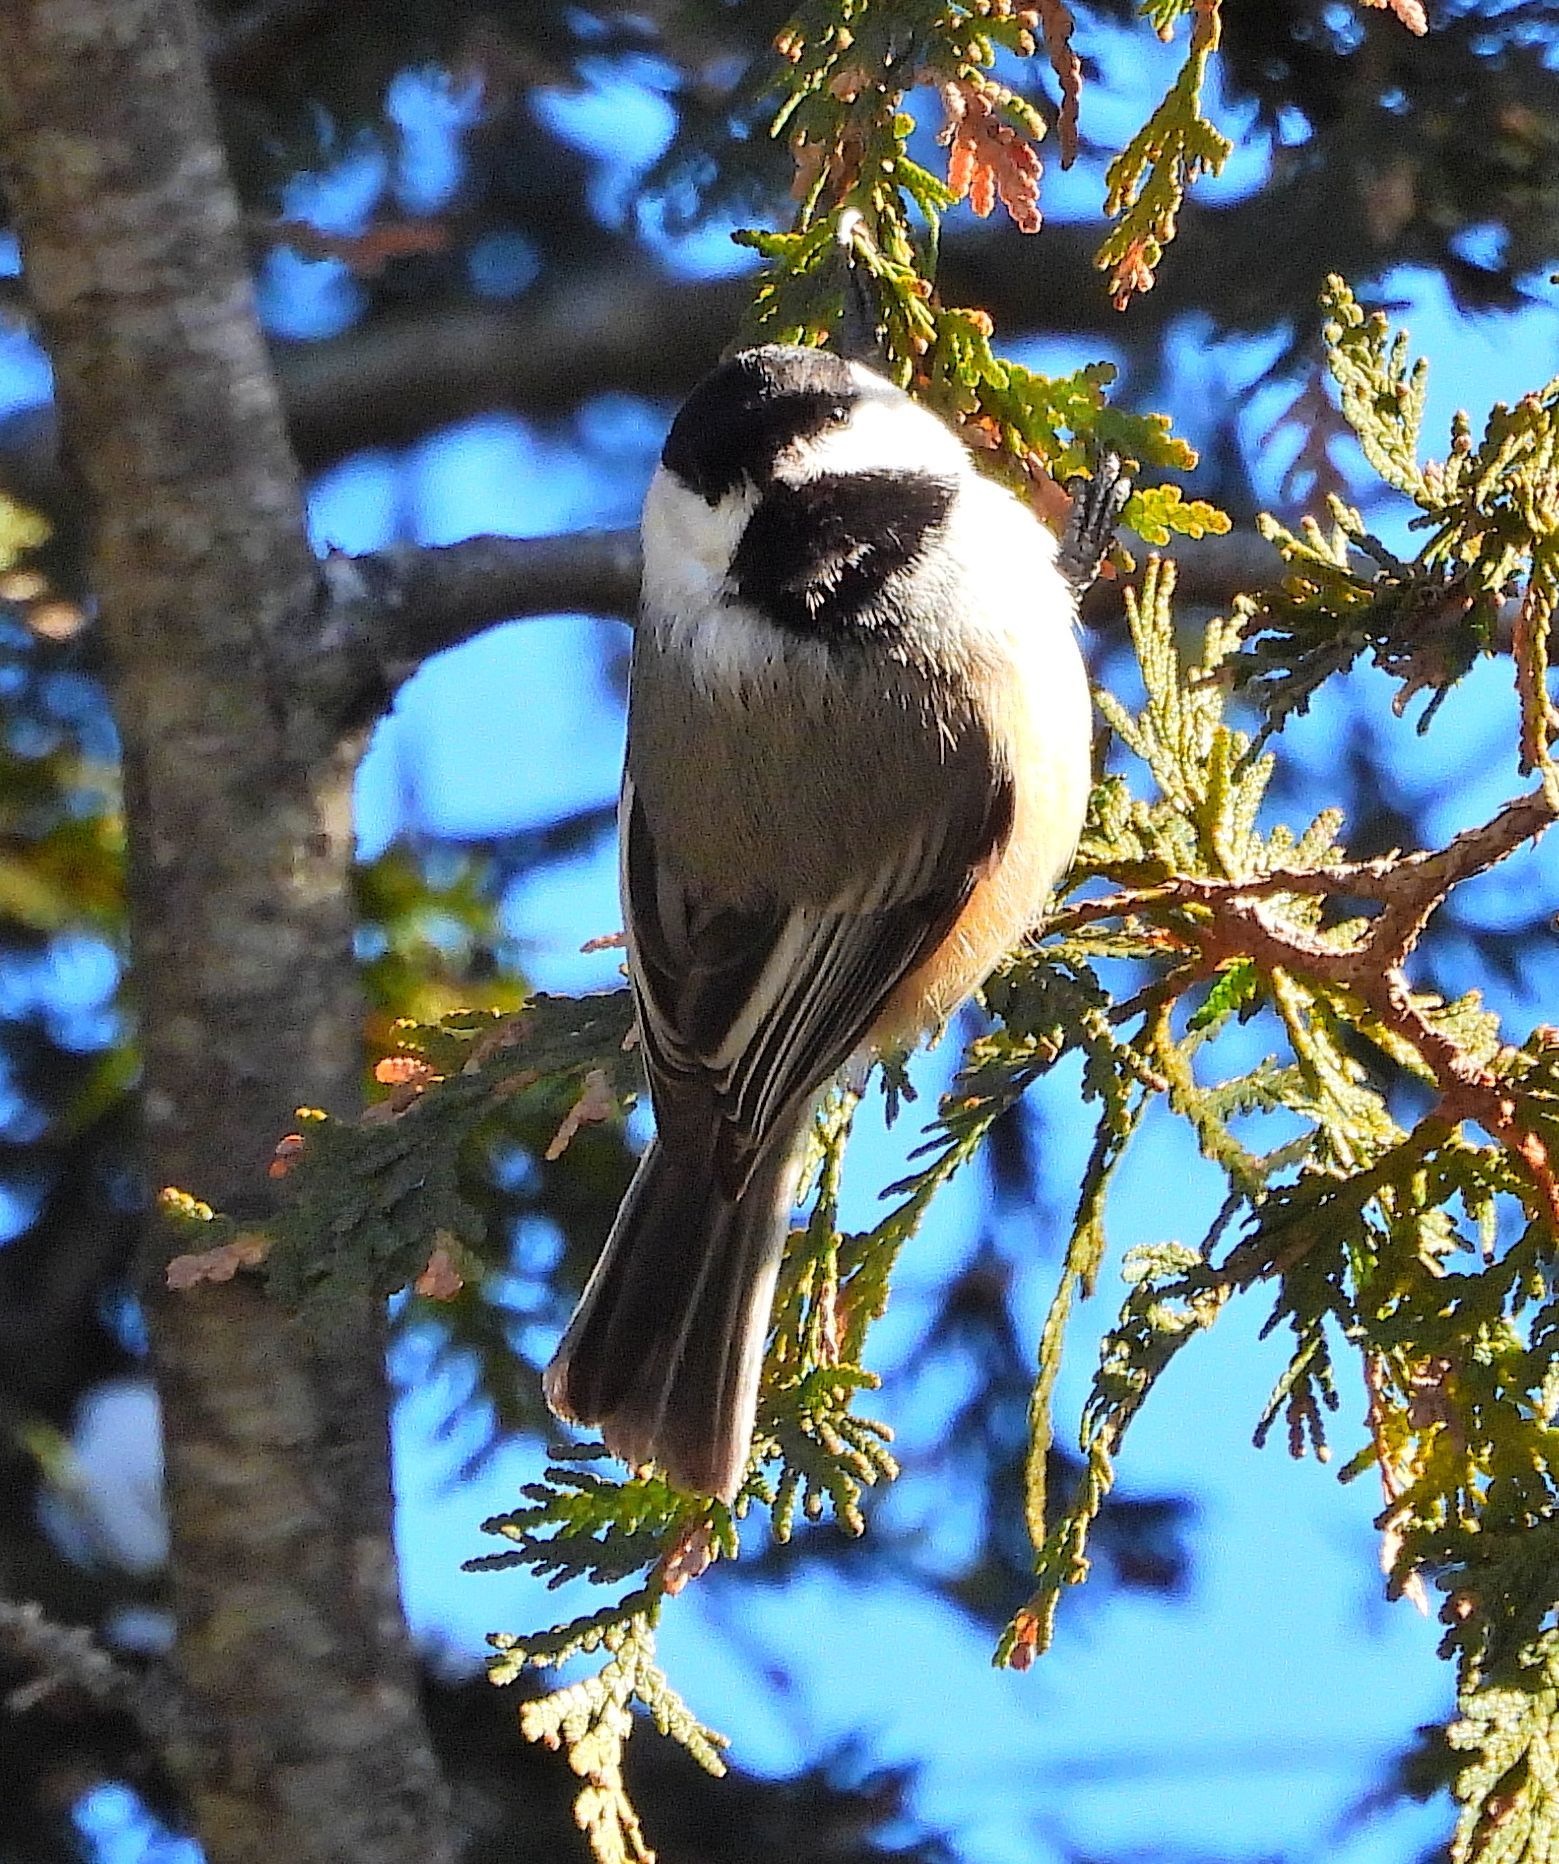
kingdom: Animalia
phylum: Chordata
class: Aves
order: Passeriformes
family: Paridae
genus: Poecile
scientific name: Poecile atricapillus
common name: Black-capped chickadee
